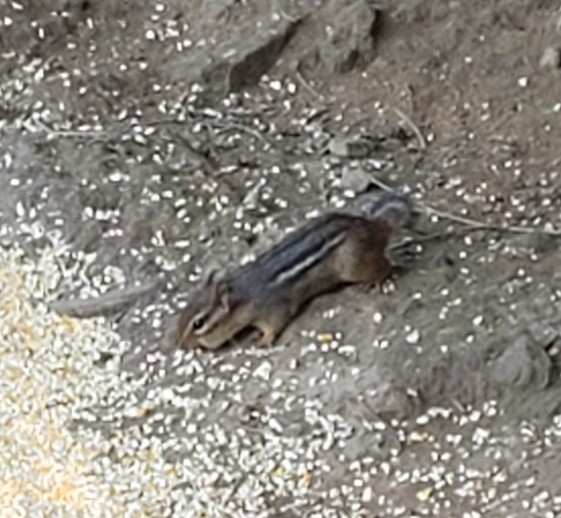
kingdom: Animalia
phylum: Chordata
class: Mammalia
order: Rodentia
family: Sciuridae
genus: Tamias
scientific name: Tamias striatus
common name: Eastern chipmunk
